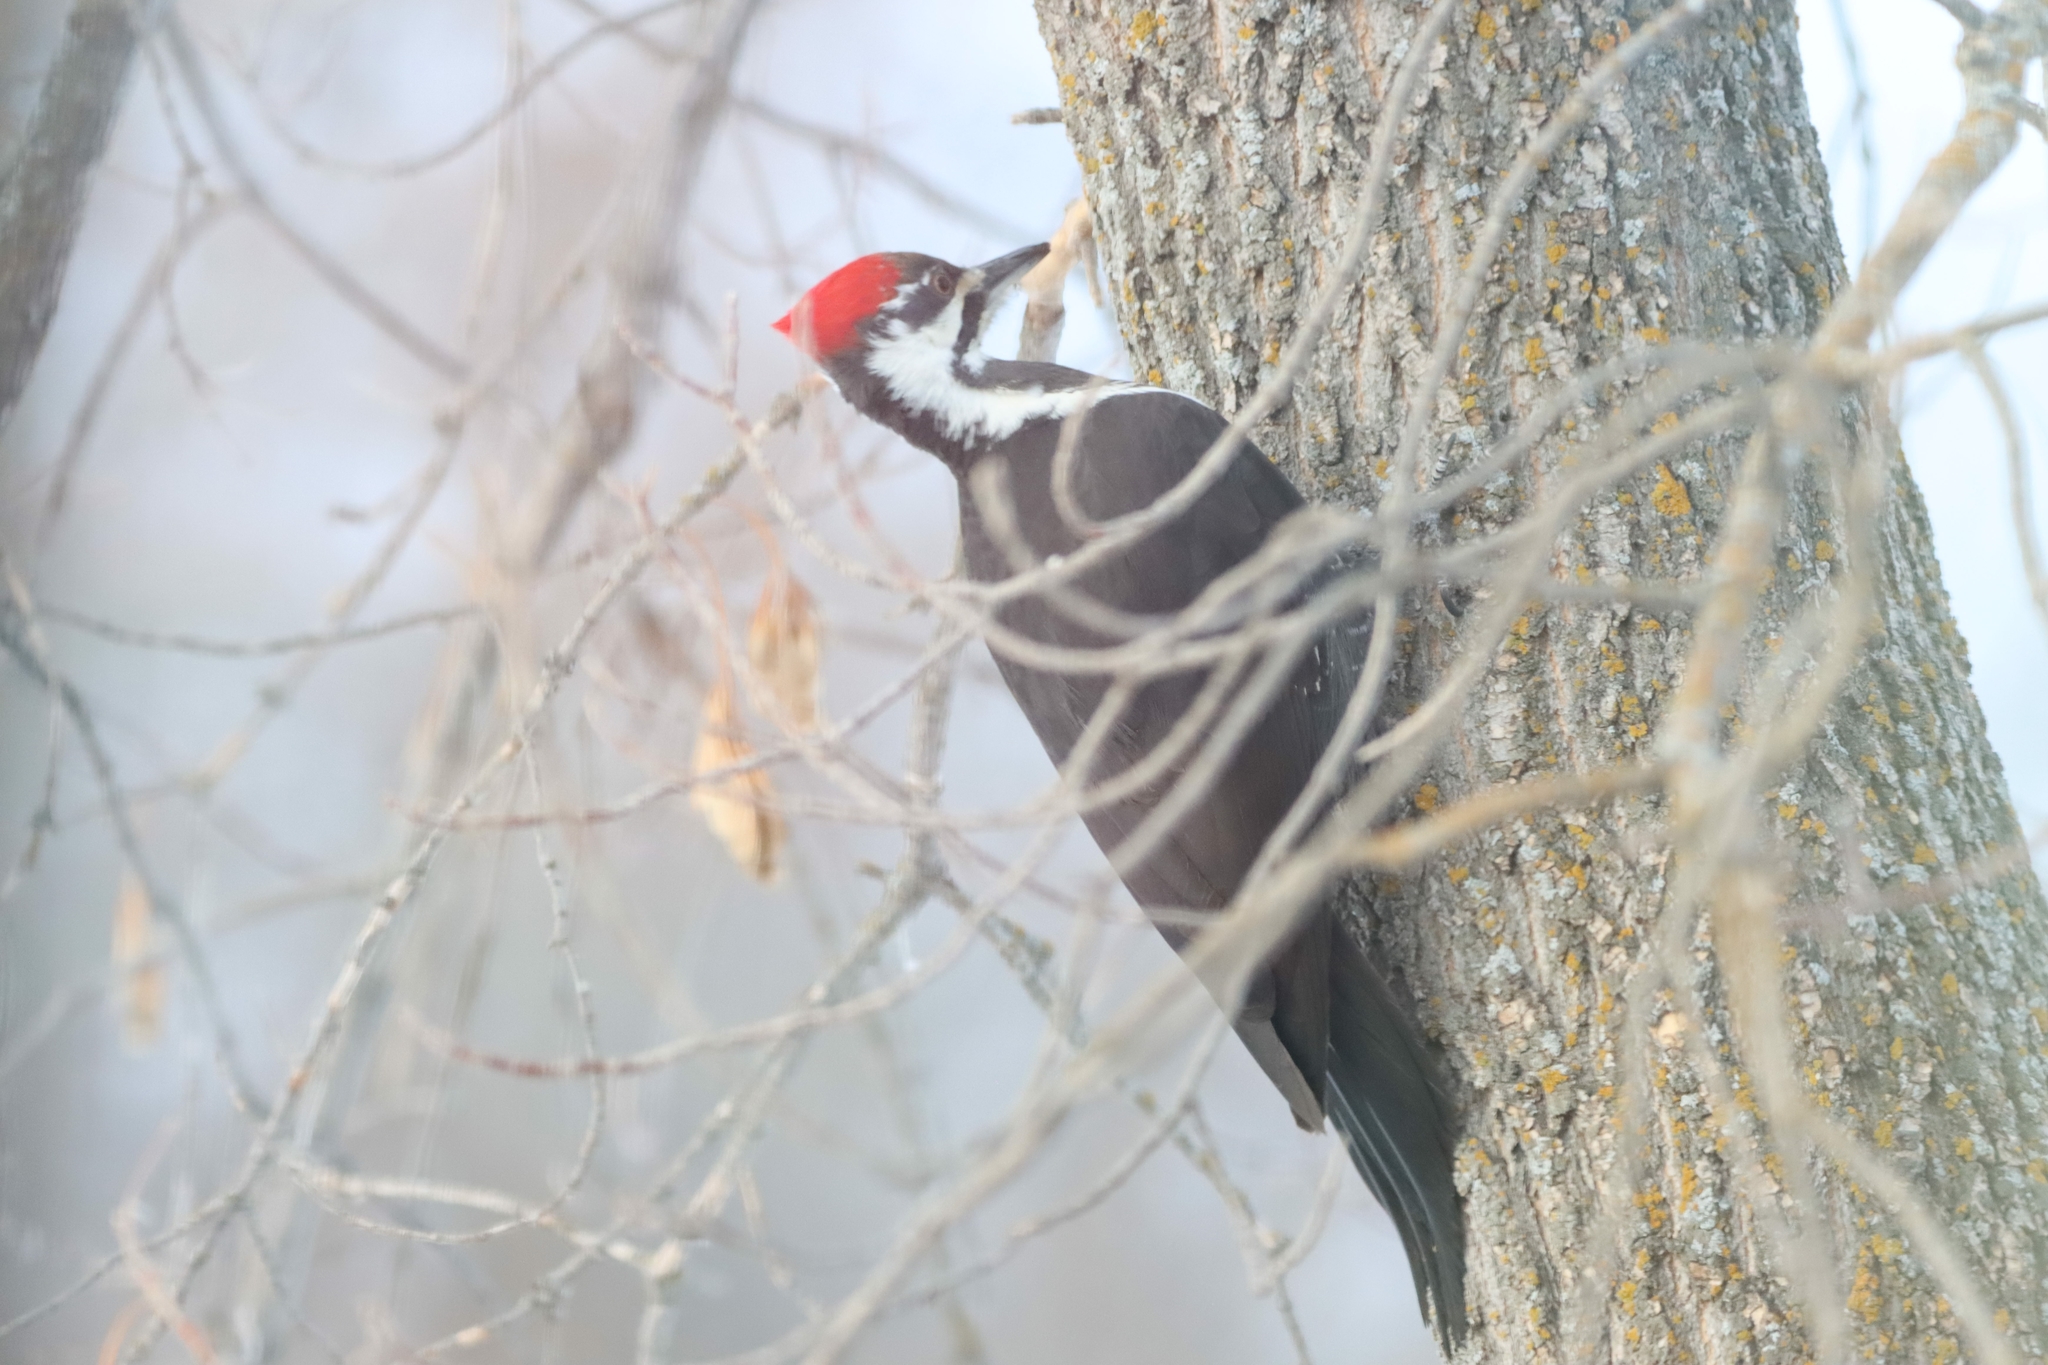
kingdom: Animalia
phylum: Chordata
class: Aves
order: Piciformes
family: Picidae
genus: Dryocopus
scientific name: Dryocopus pileatus
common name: Pileated woodpecker
